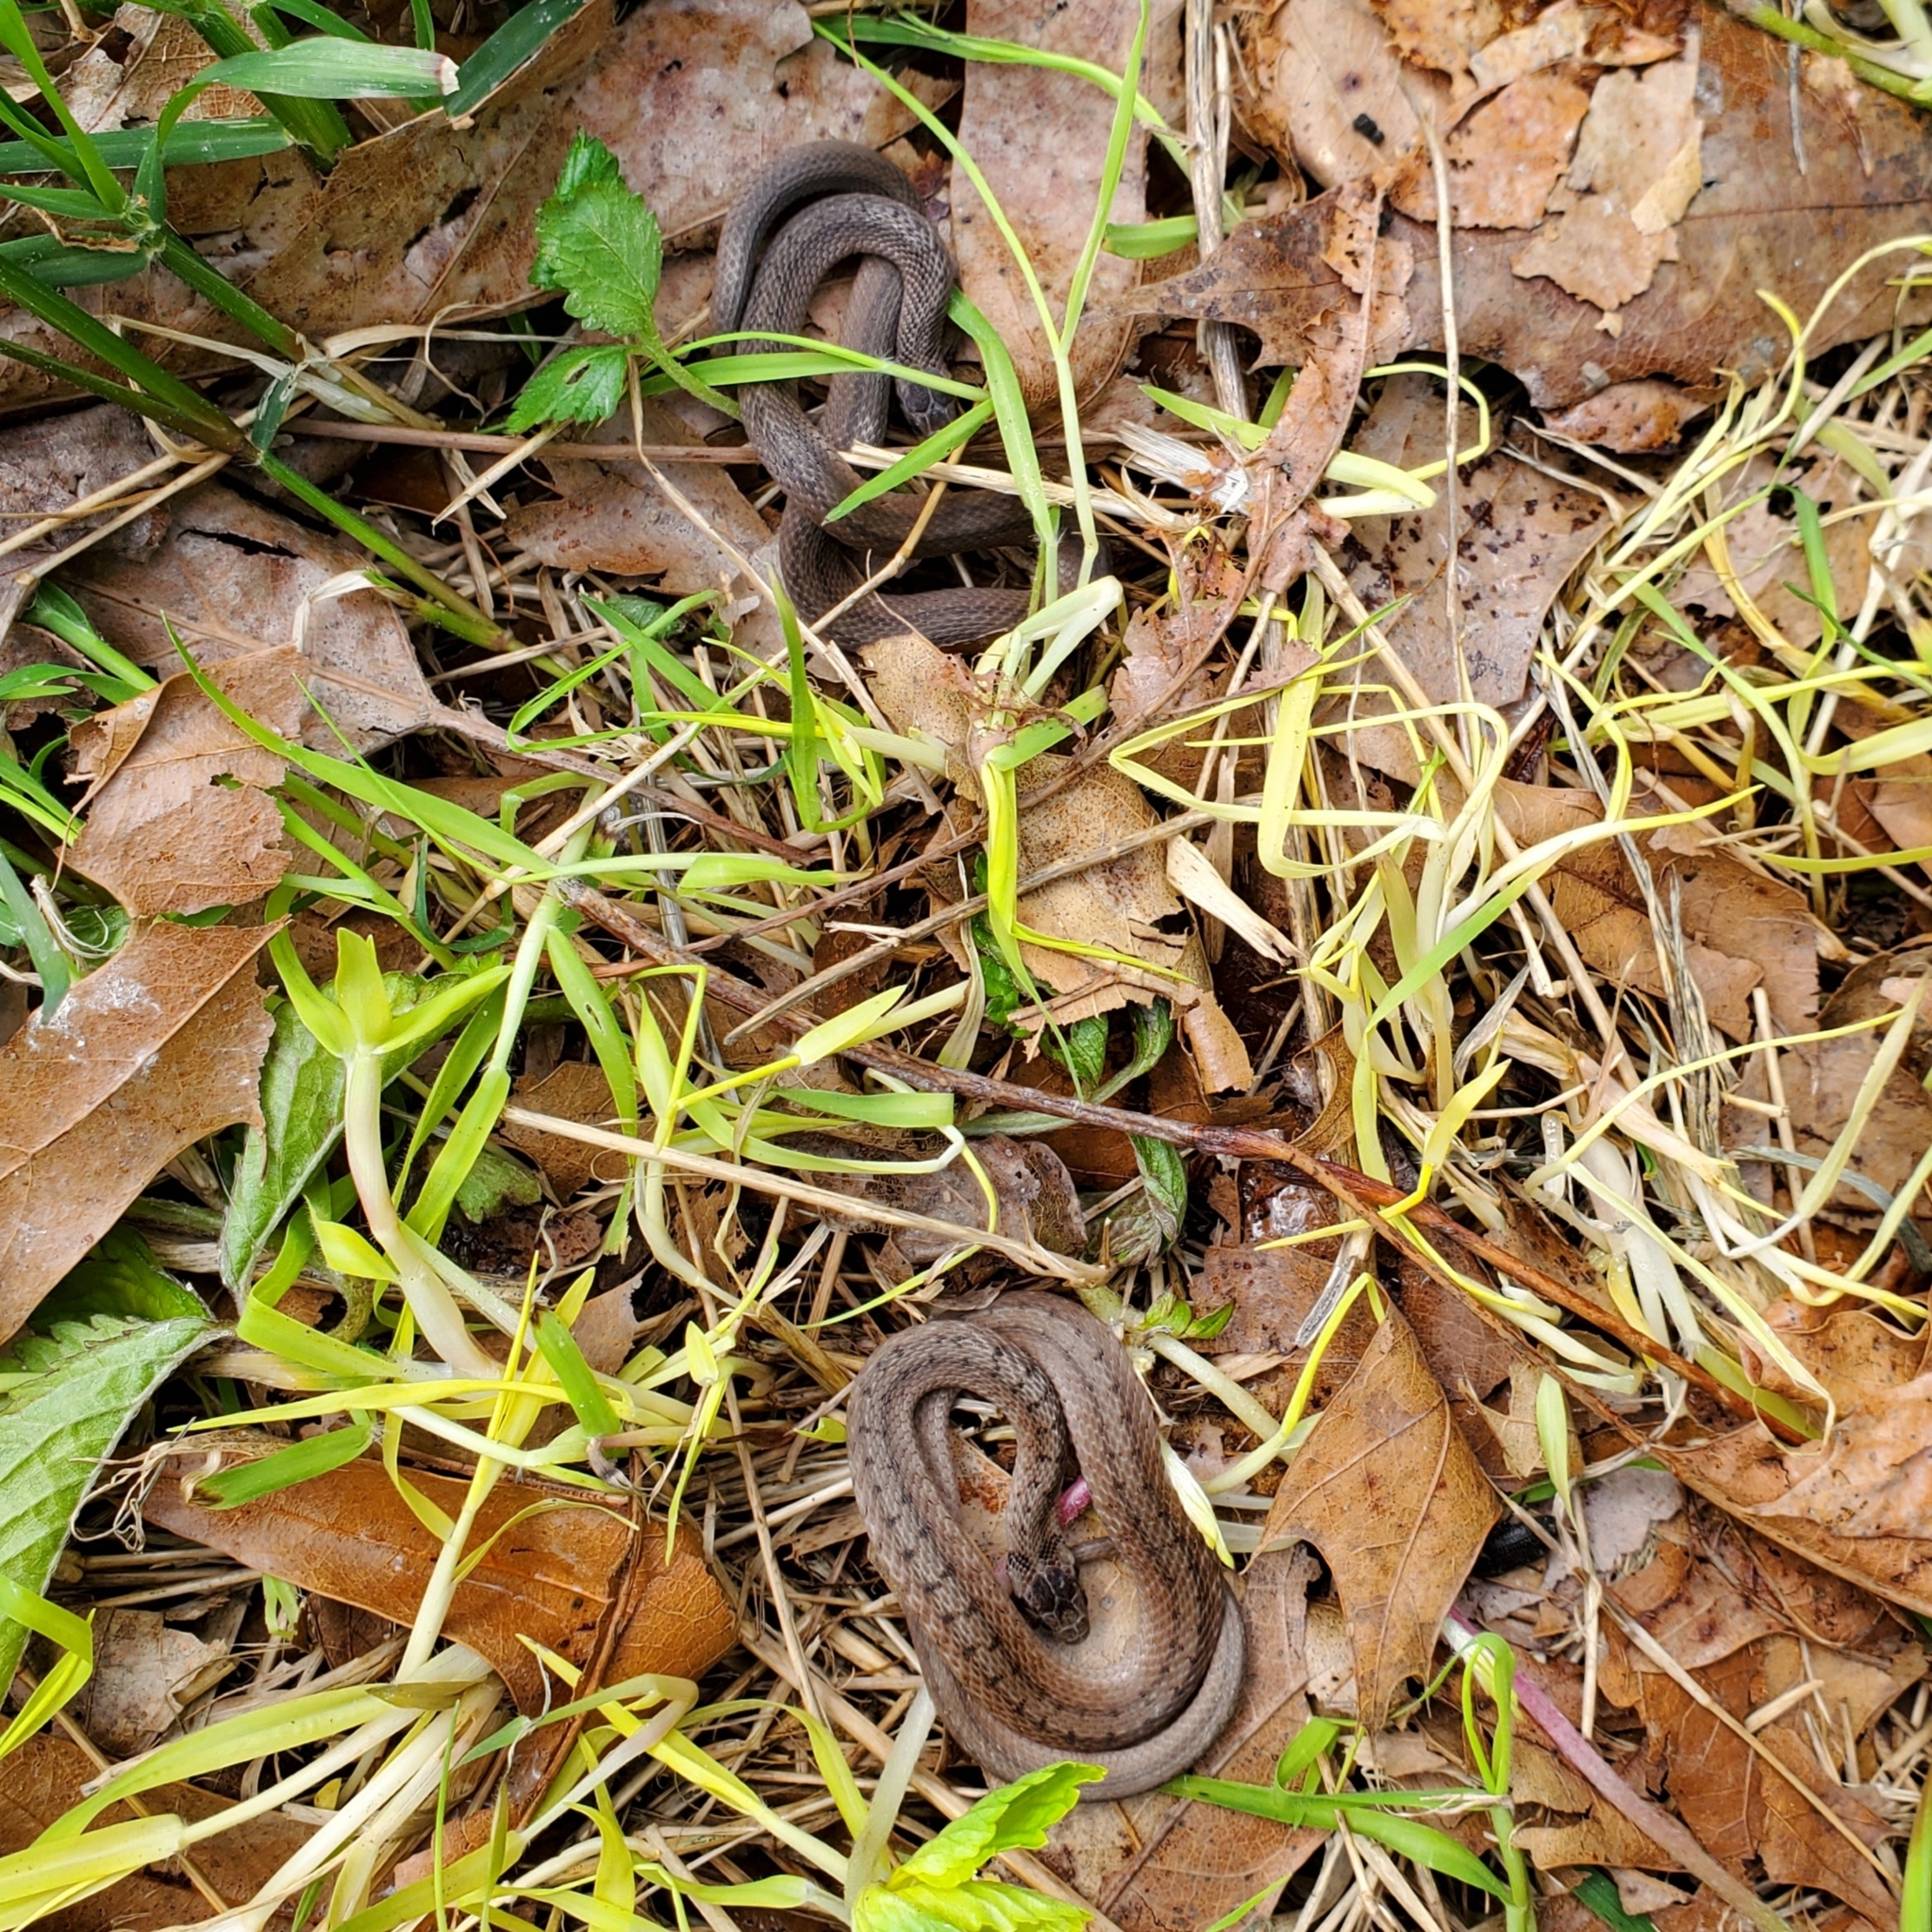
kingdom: Animalia
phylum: Chordata
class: Squamata
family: Colubridae
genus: Storeria
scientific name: Storeria dekayi
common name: (dekay’s) brown snake
